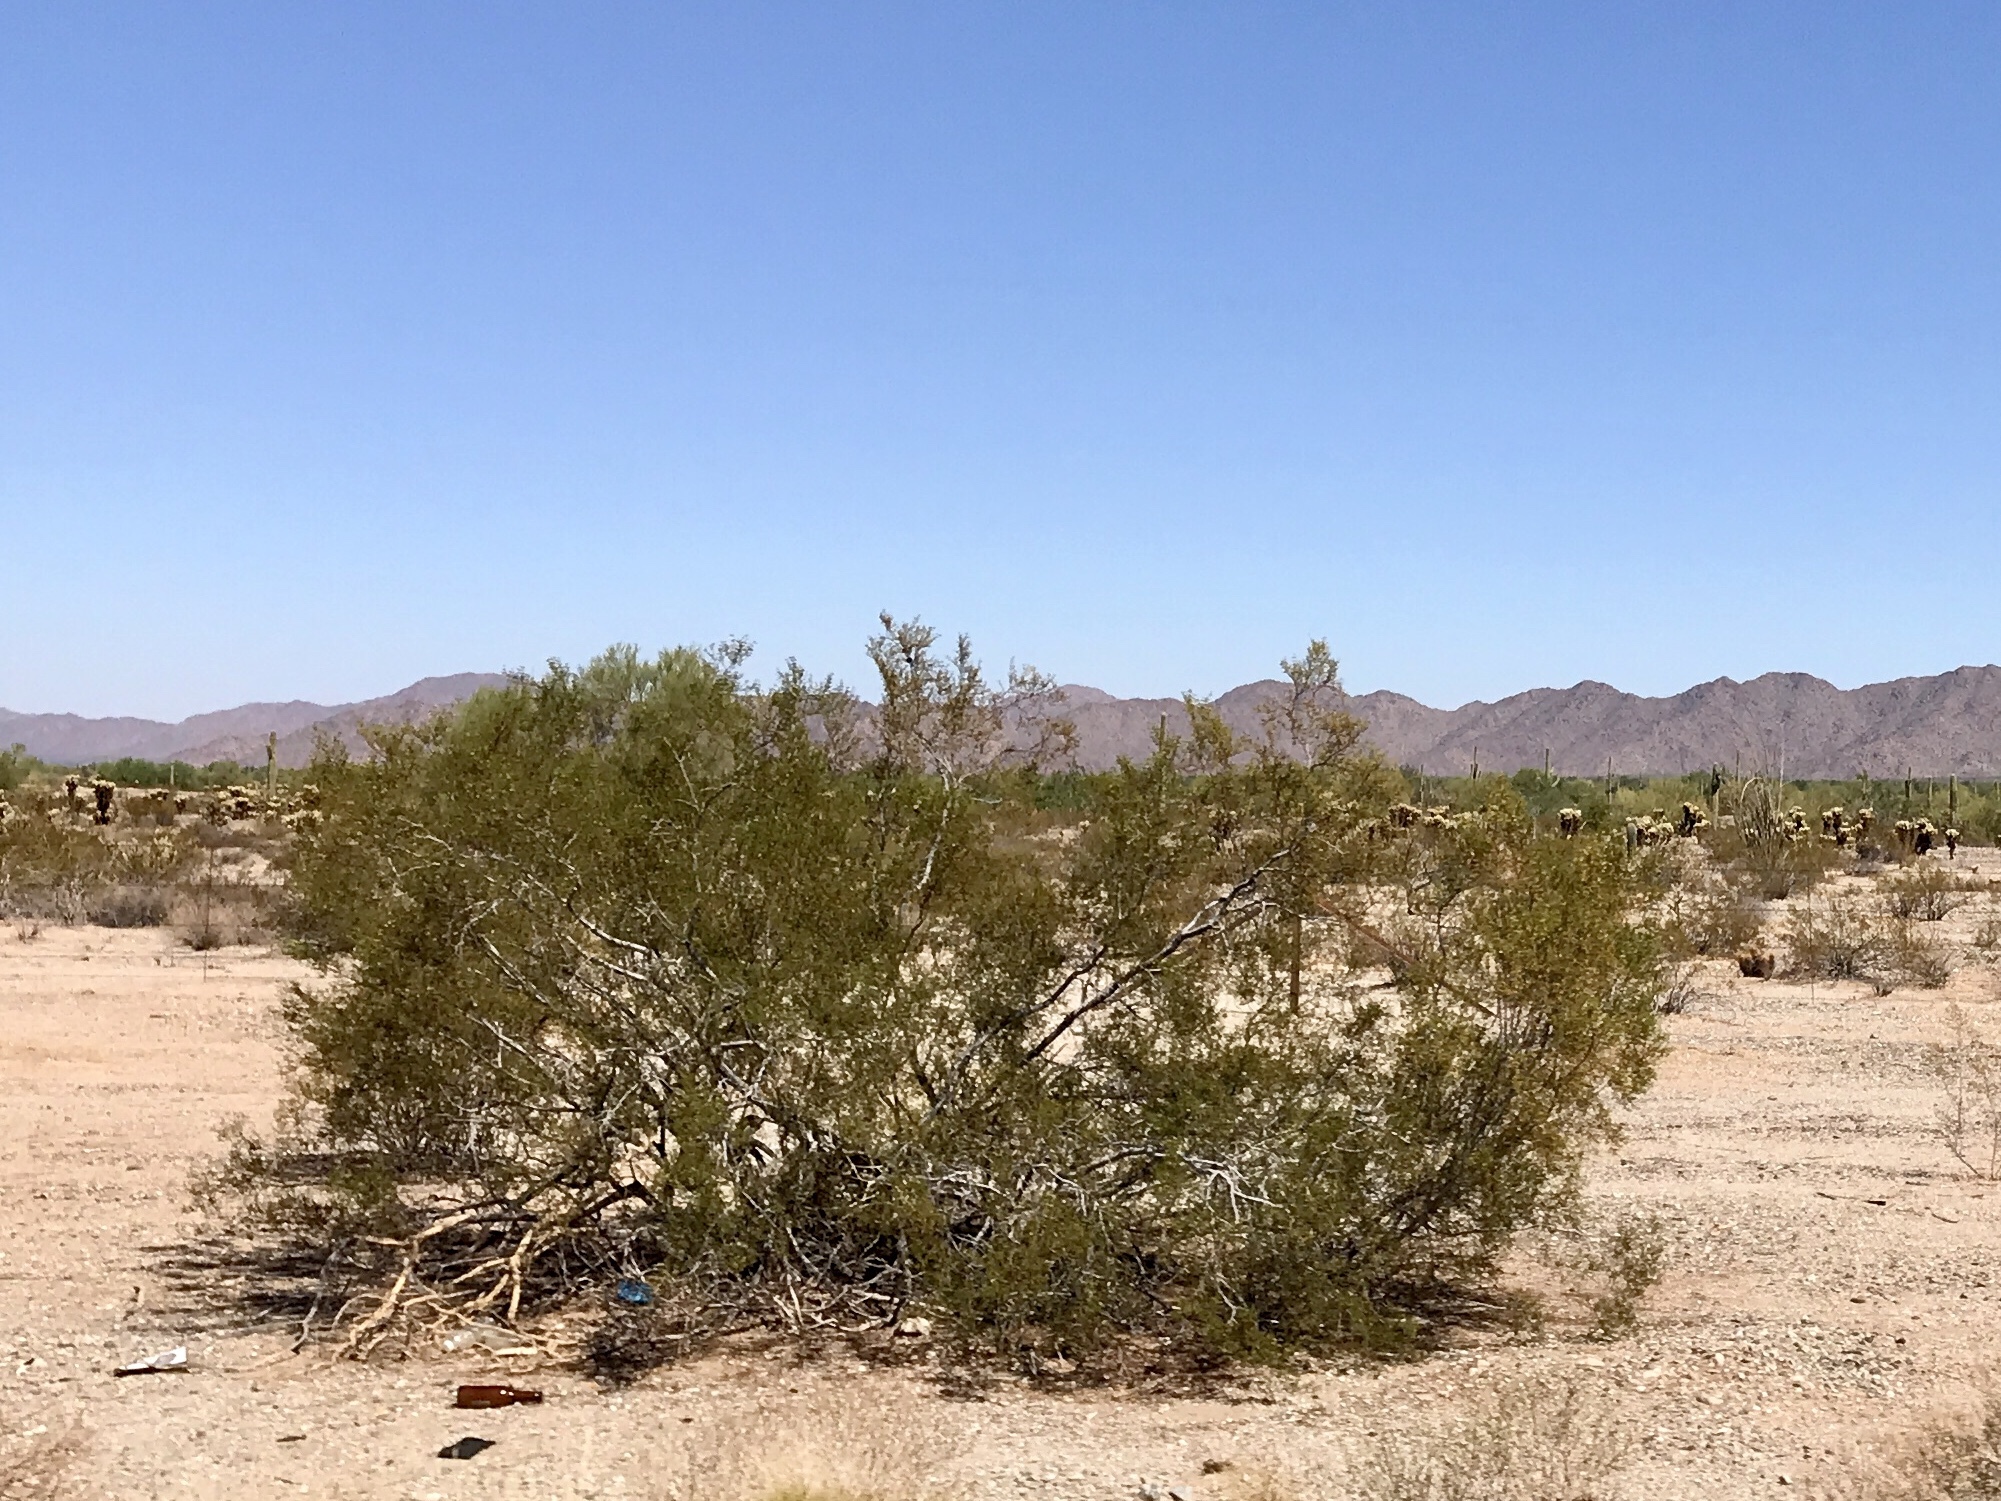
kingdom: Plantae
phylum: Tracheophyta
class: Magnoliopsida
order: Zygophyllales
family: Zygophyllaceae
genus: Larrea
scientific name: Larrea tridentata
